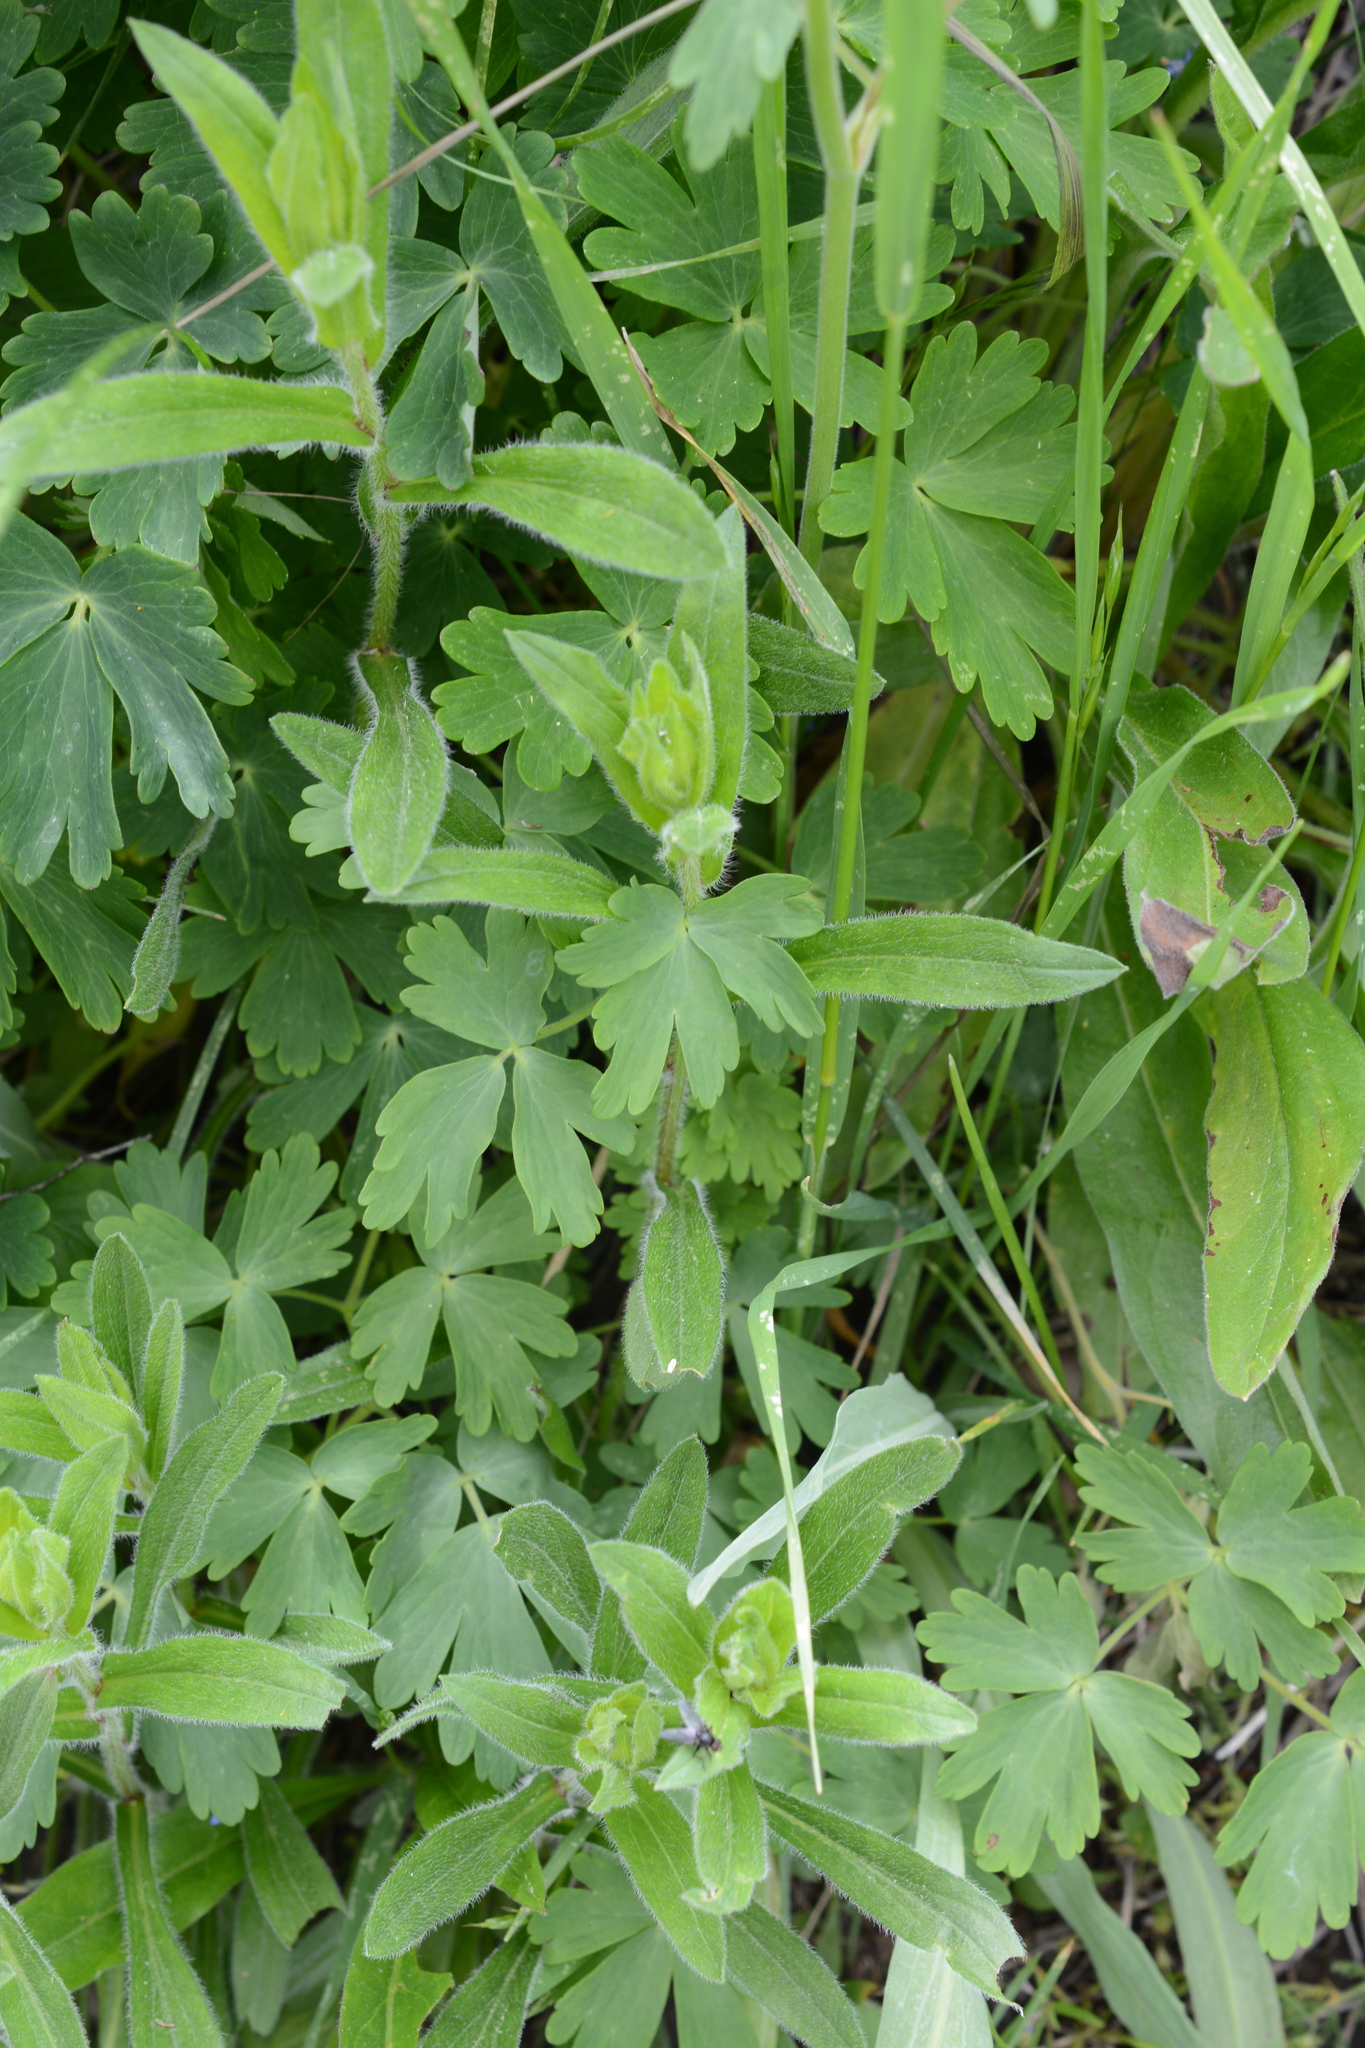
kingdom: Plantae
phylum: Tracheophyta
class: Magnoliopsida
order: Ranunculales
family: Ranunculaceae
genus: Aquilegia
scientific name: Aquilegia flavescens
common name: Yellow columbine
